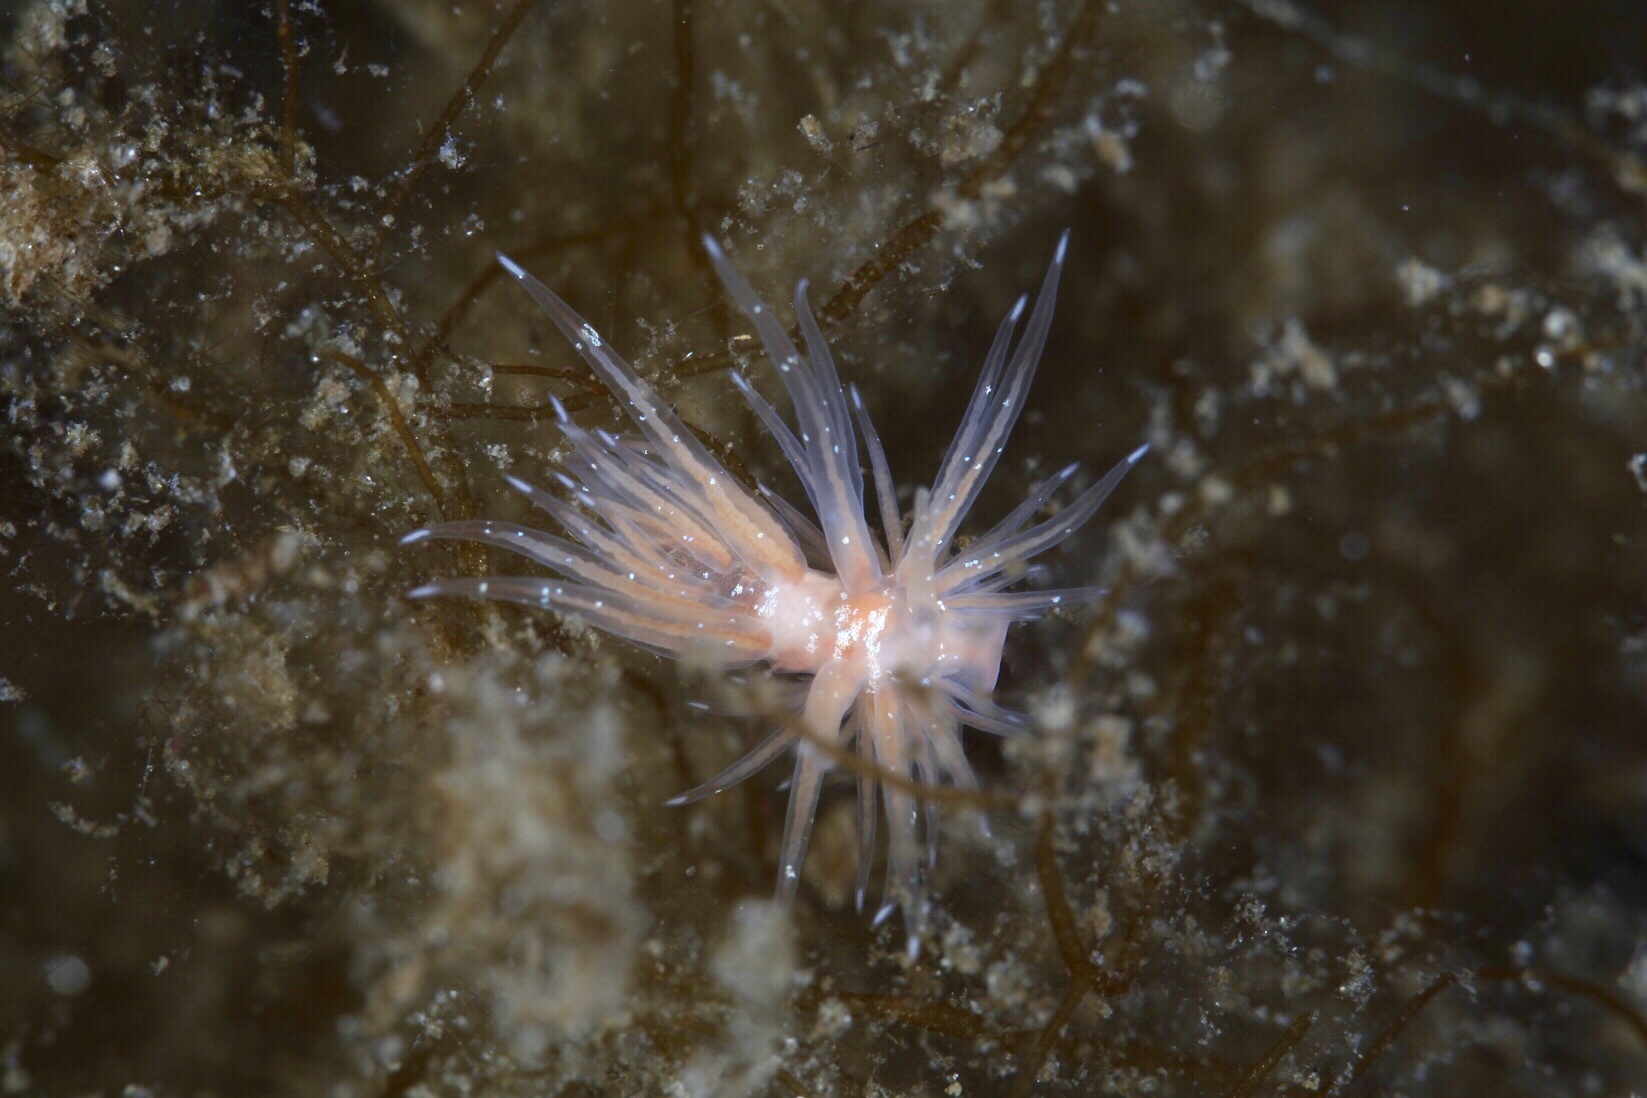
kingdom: Animalia
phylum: Mollusca
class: Gastropoda
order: Nudibranchia
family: Cumanotidae
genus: Cumanotus
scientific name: Cumanotus beaumonti
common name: Polyp aeolis
